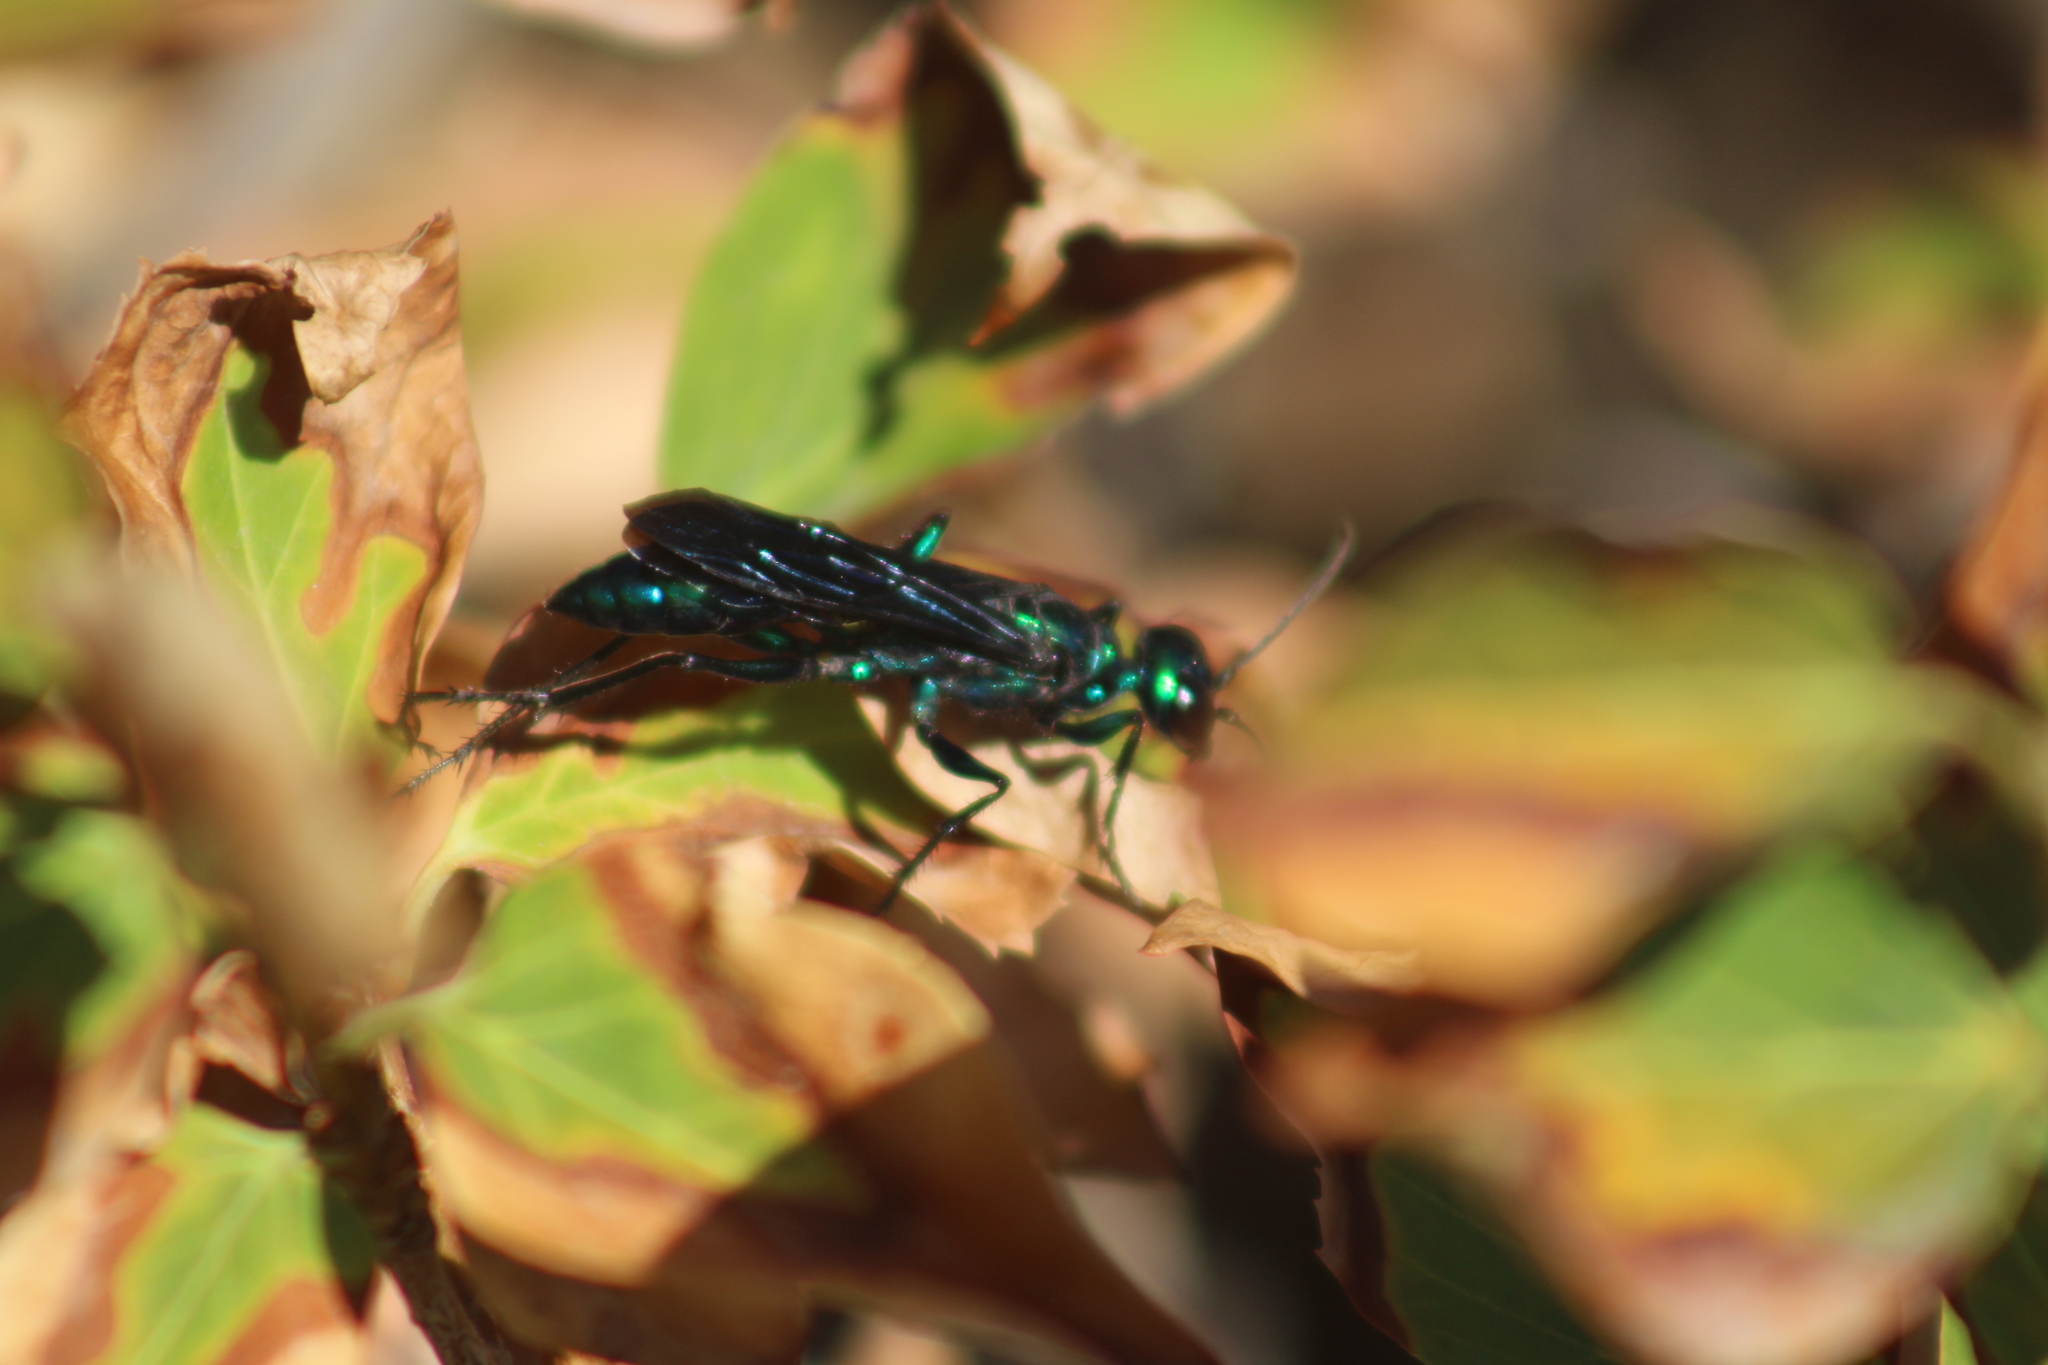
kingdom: Animalia
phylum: Arthropoda
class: Insecta
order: Hymenoptera
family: Sphecidae
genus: Chlorion
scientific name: Chlorion aerarium
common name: Steel-blue cricket hunter
